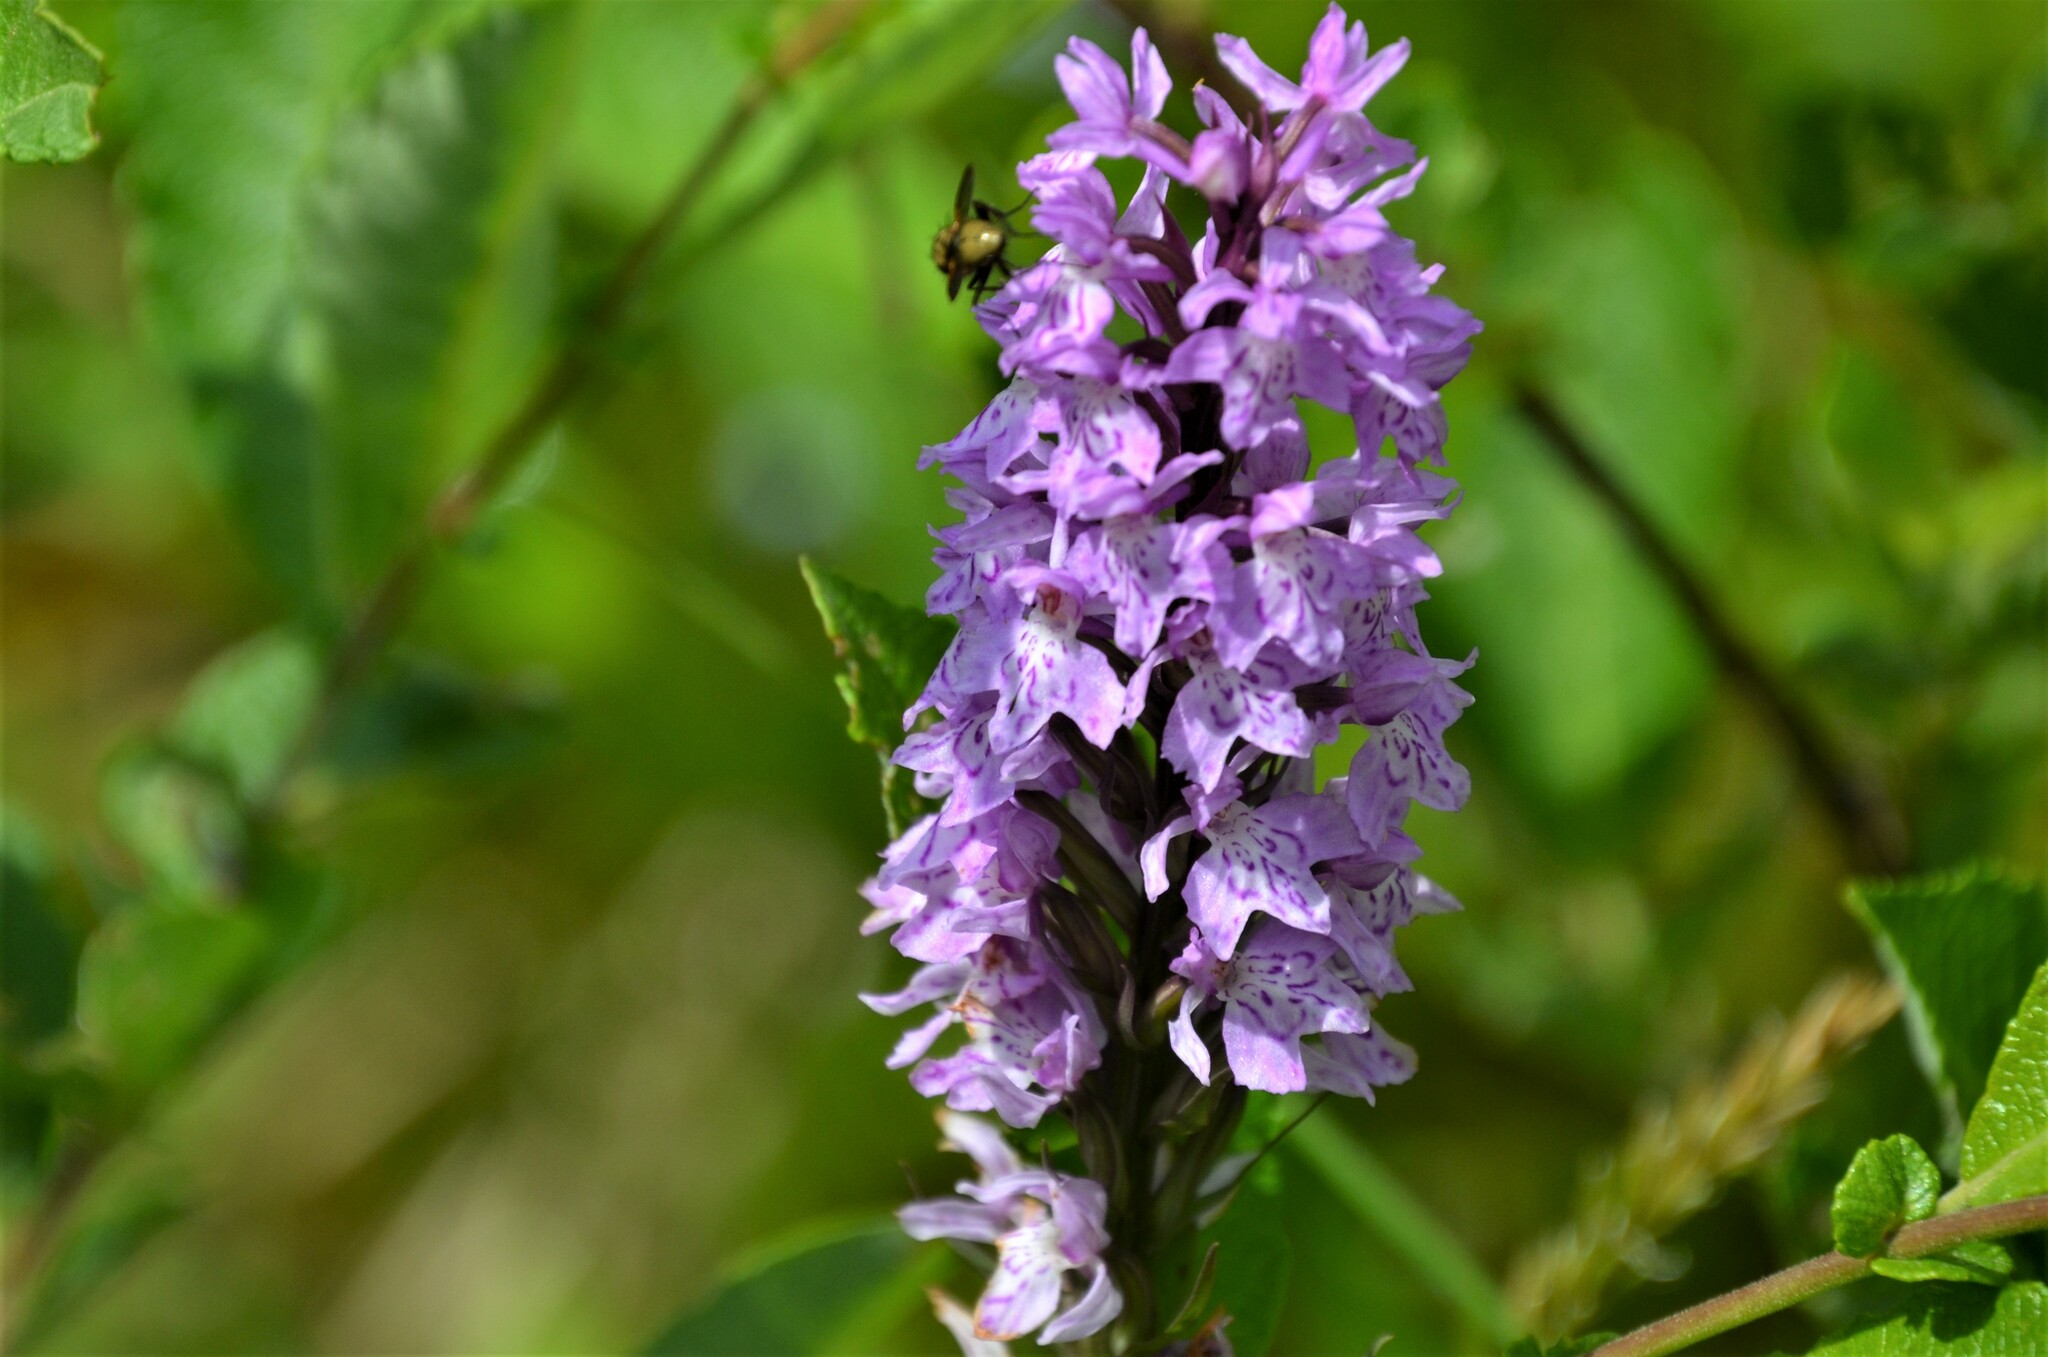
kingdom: Plantae
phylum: Tracheophyta
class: Liliopsida
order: Asparagales
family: Orchidaceae
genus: Dactylorhiza
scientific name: Dactylorhiza maculata
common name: Heath spotted-orchid
